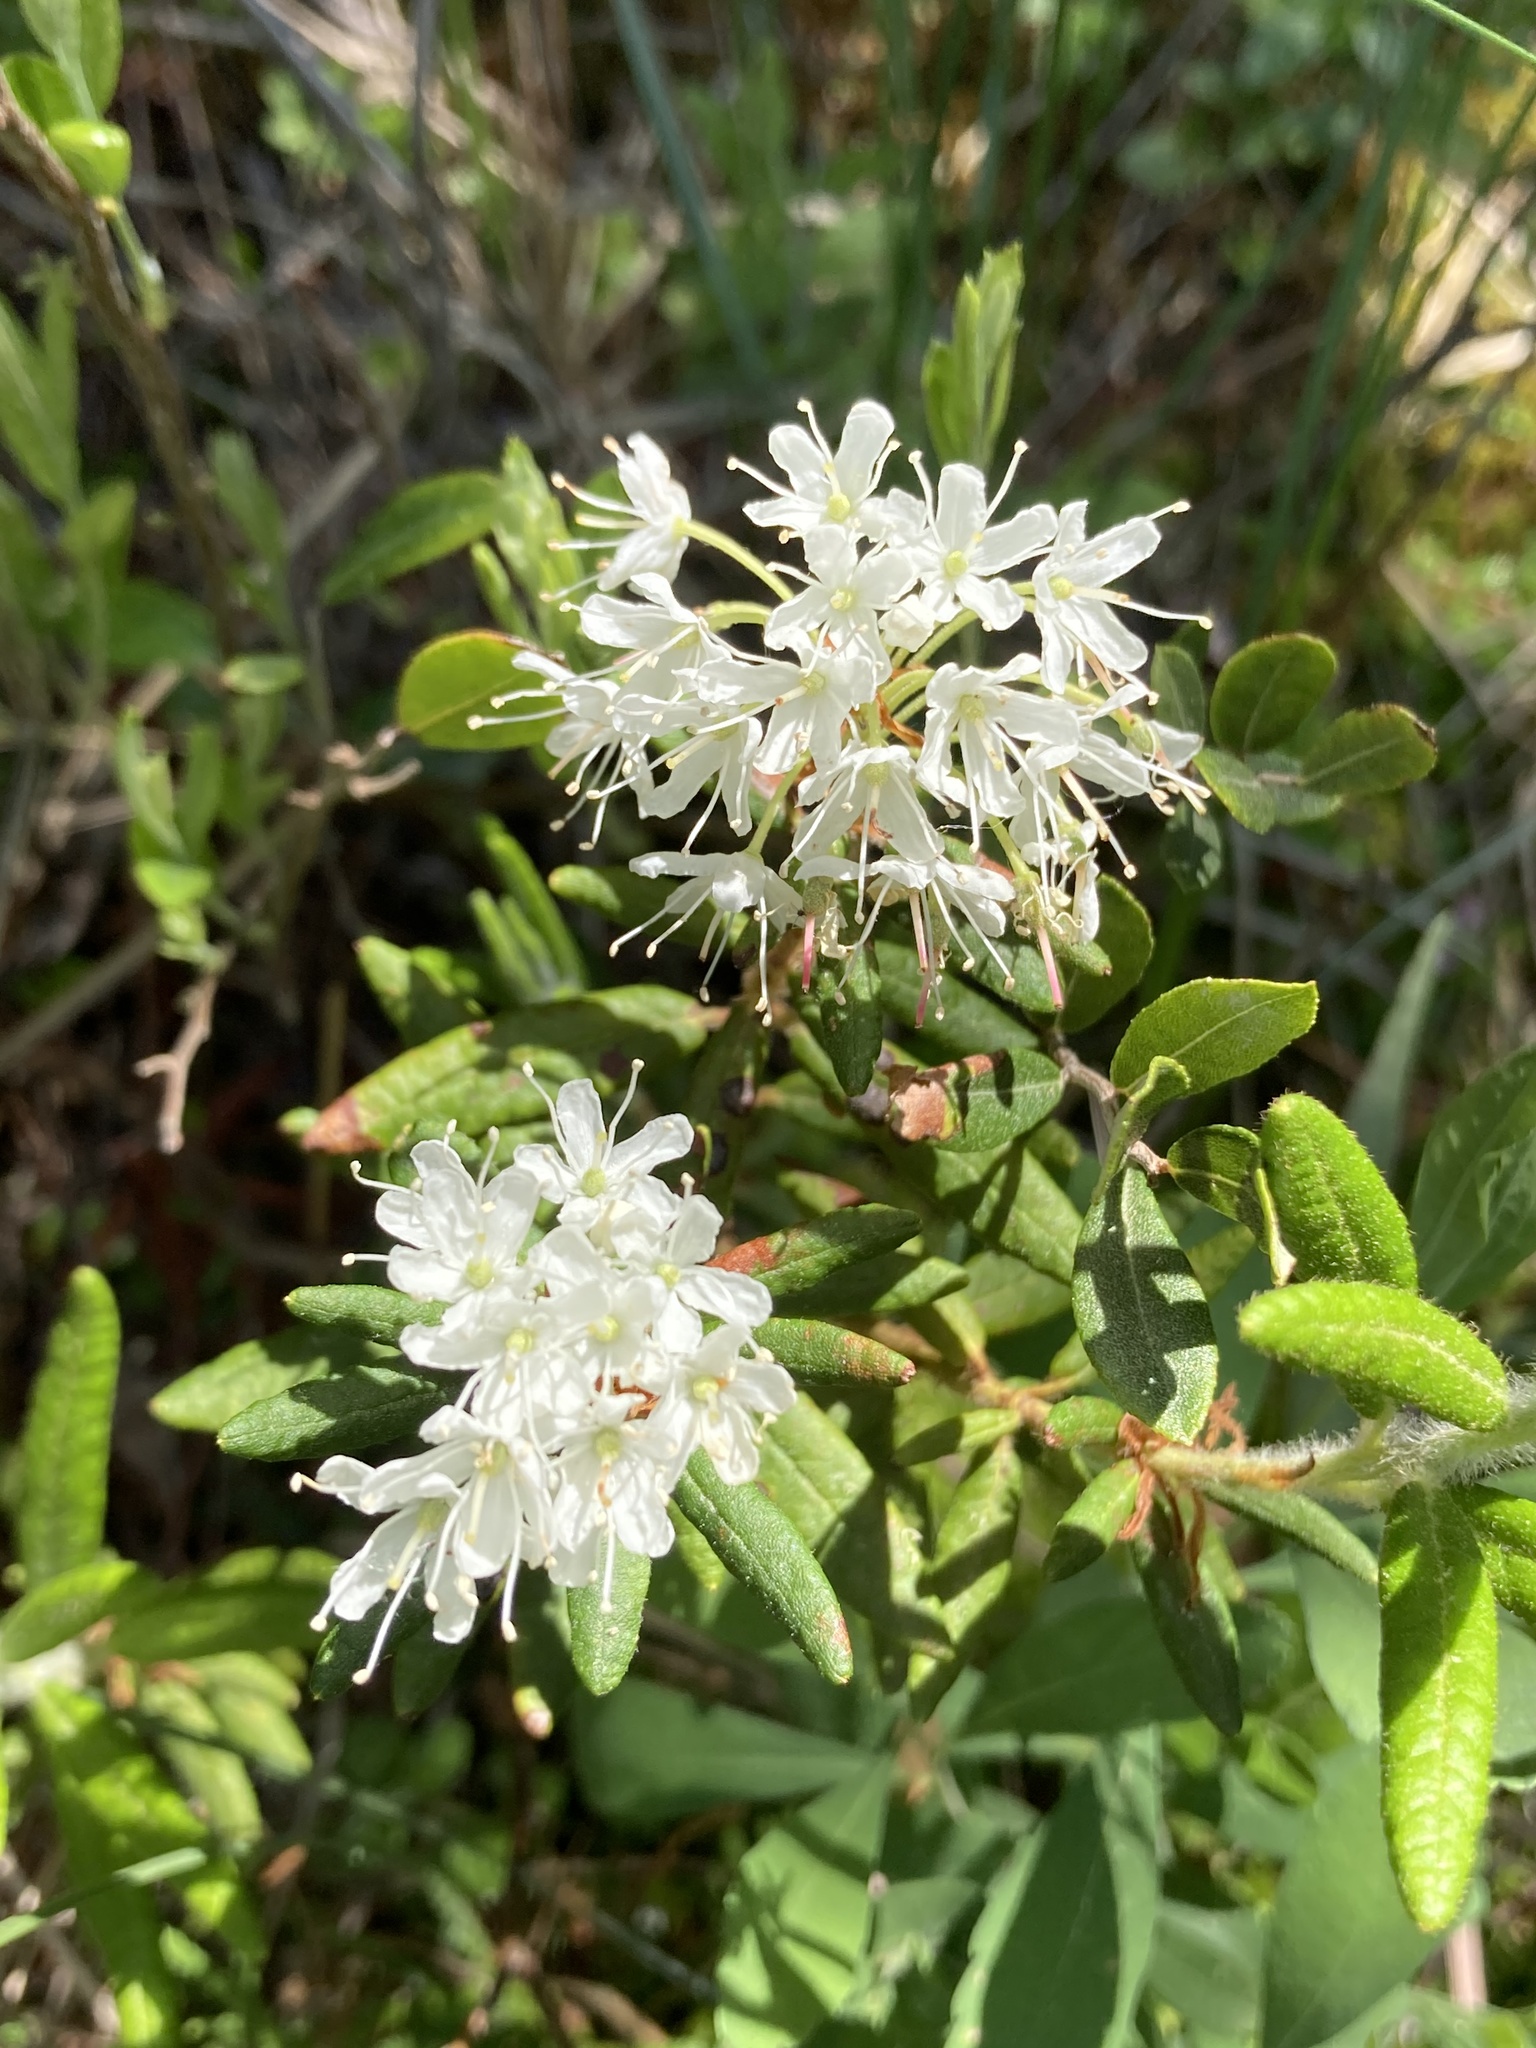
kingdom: Plantae
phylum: Tracheophyta
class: Magnoliopsida
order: Ericales
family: Ericaceae
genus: Rhododendron
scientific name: Rhododendron groenlandicum
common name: Bog labrador tea
